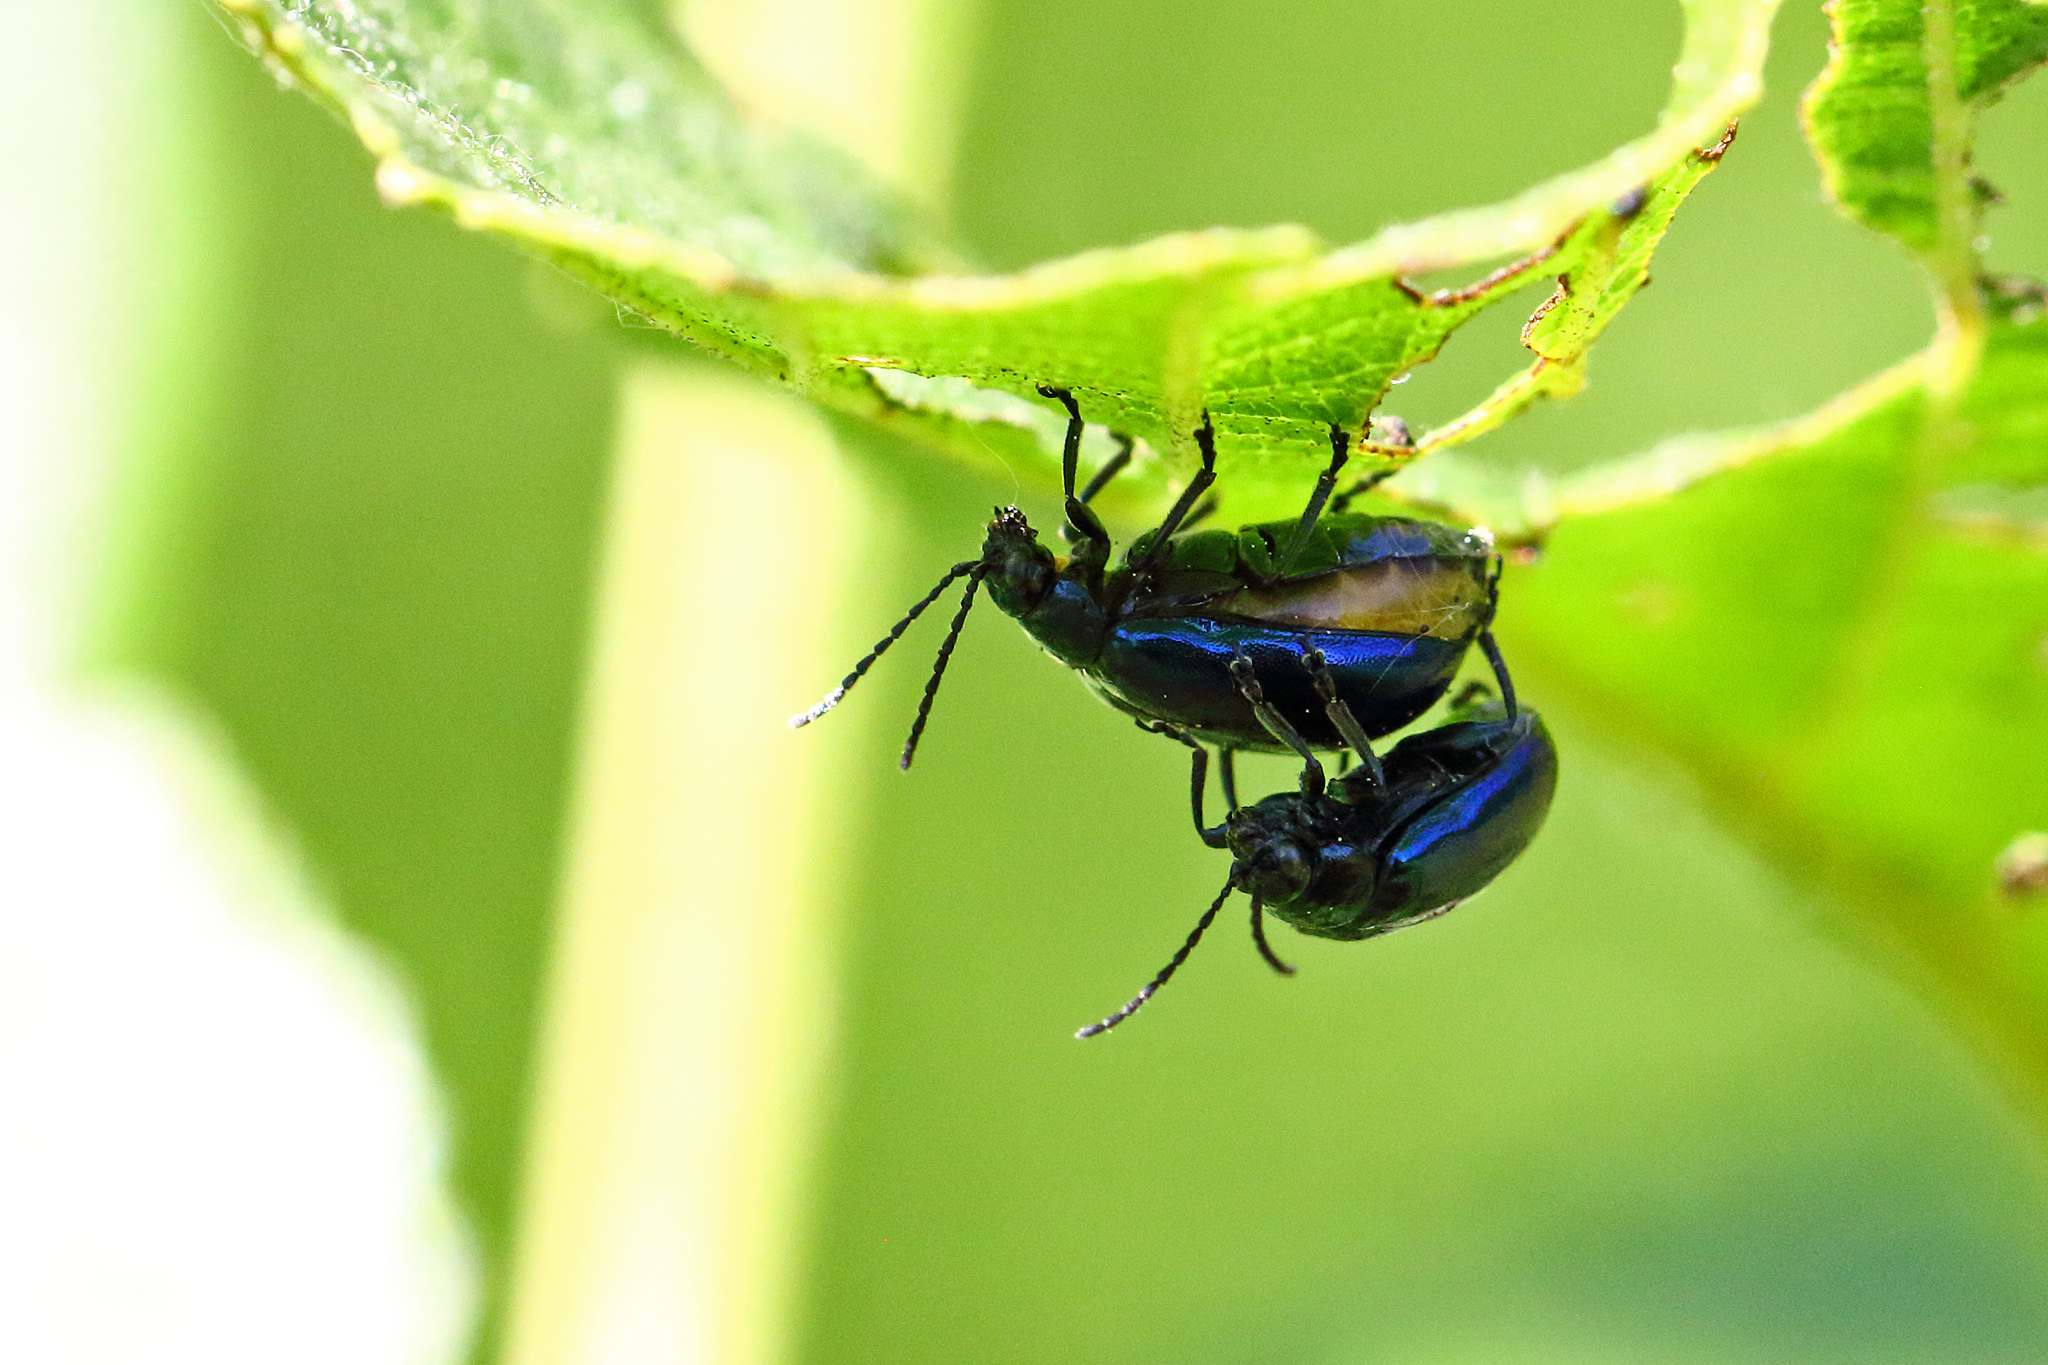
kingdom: Animalia
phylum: Arthropoda
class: Insecta
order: Coleoptera
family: Chrysomelidae
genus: Agelastica
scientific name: Agelastica alni
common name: Alder leaf beetle
